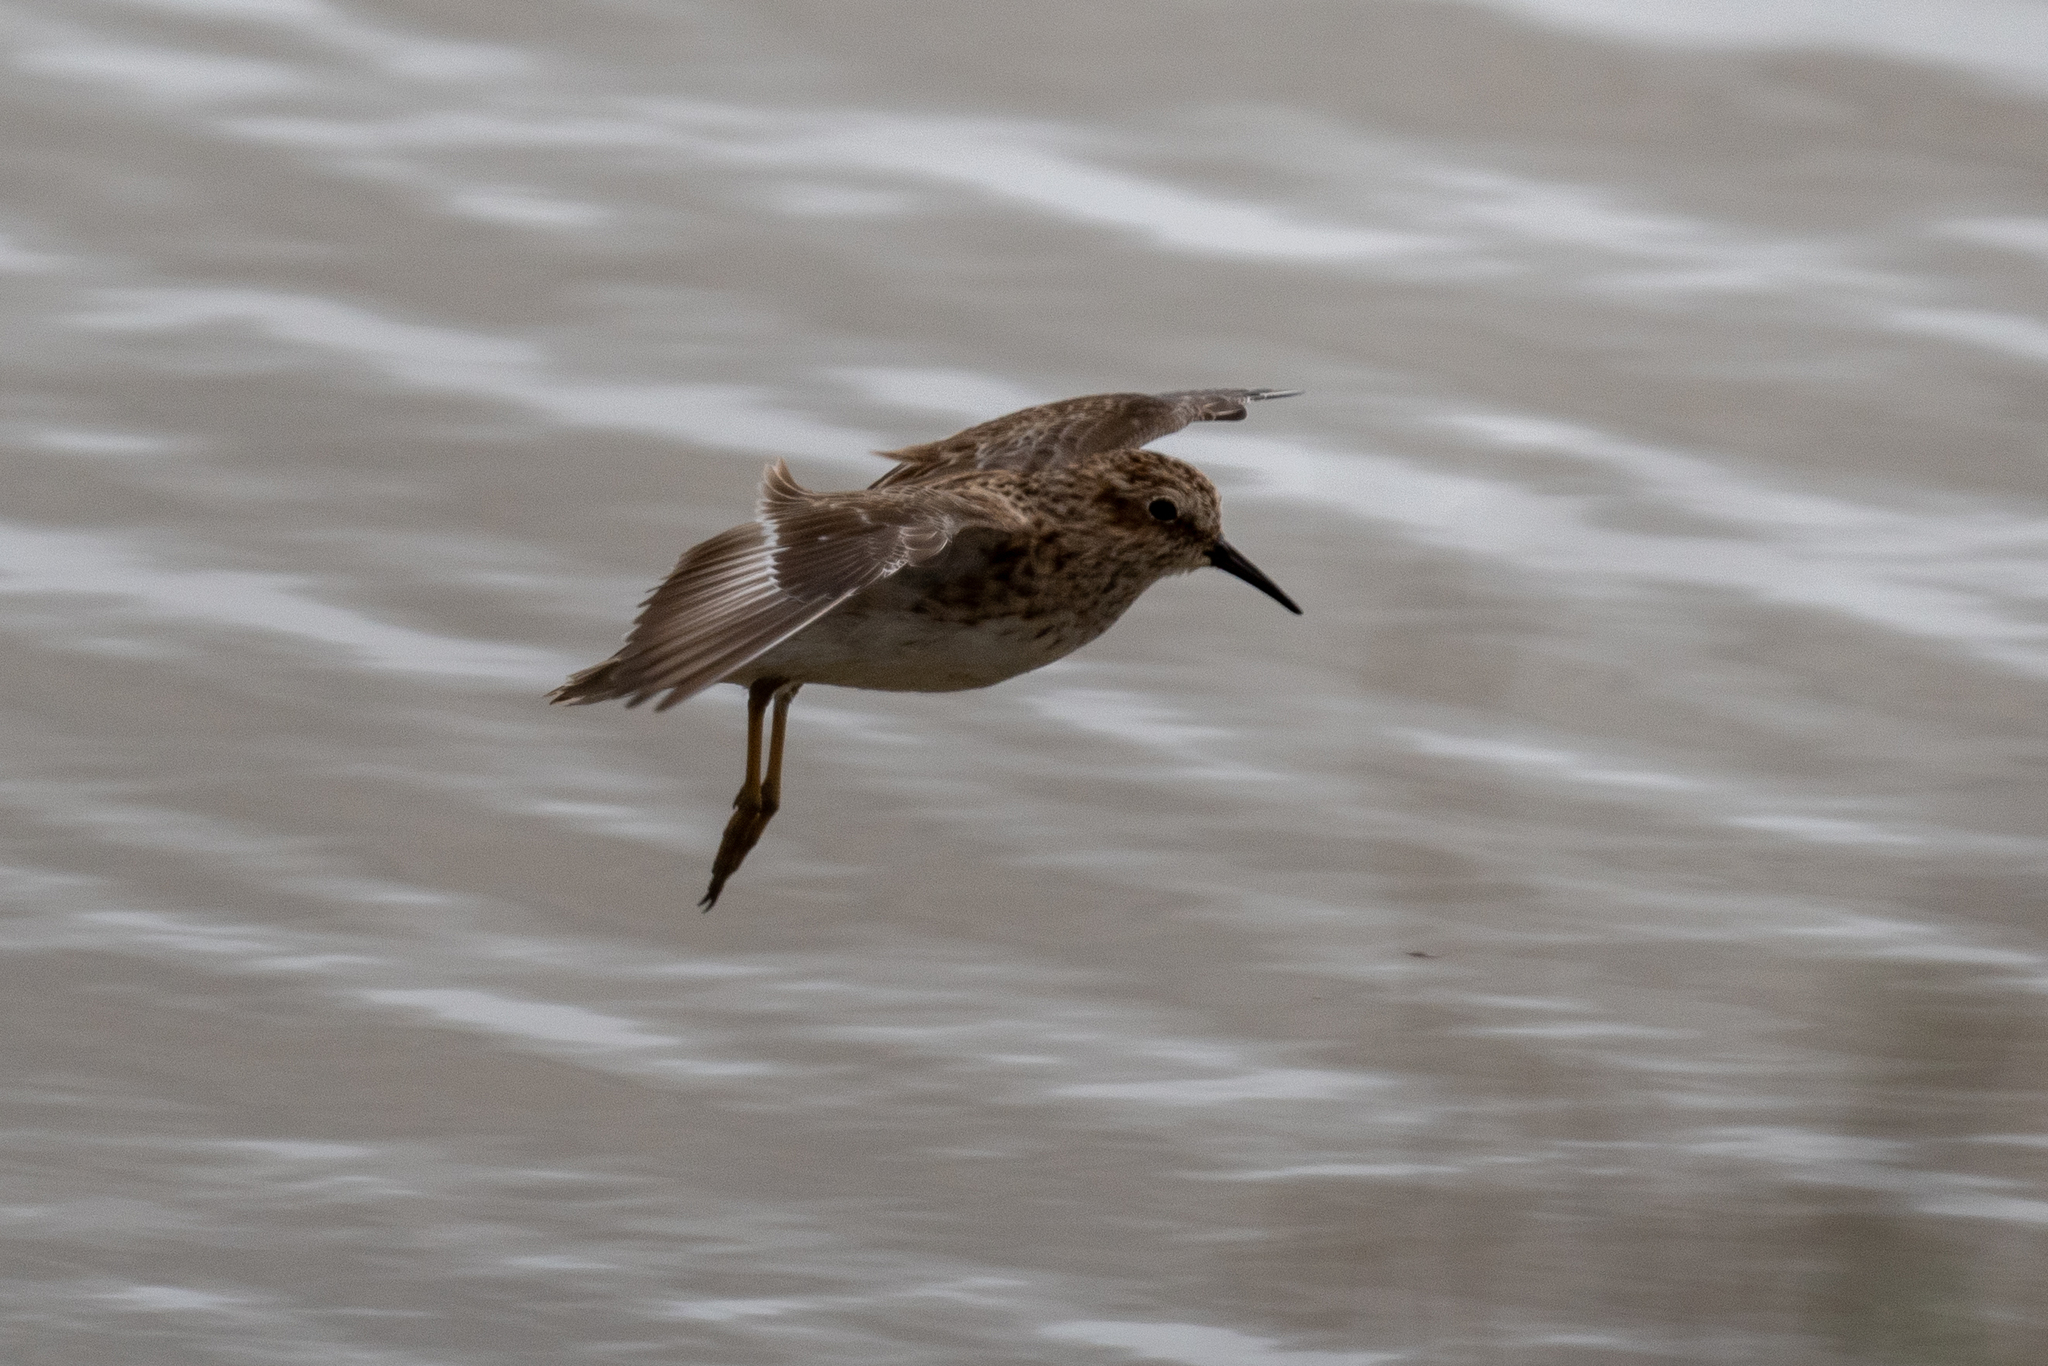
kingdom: Animalia
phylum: Chordata
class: Aves
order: Charadriiformes
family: Scolopacidae
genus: Calidris
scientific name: Calidris minutilla
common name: Least sandpiper
